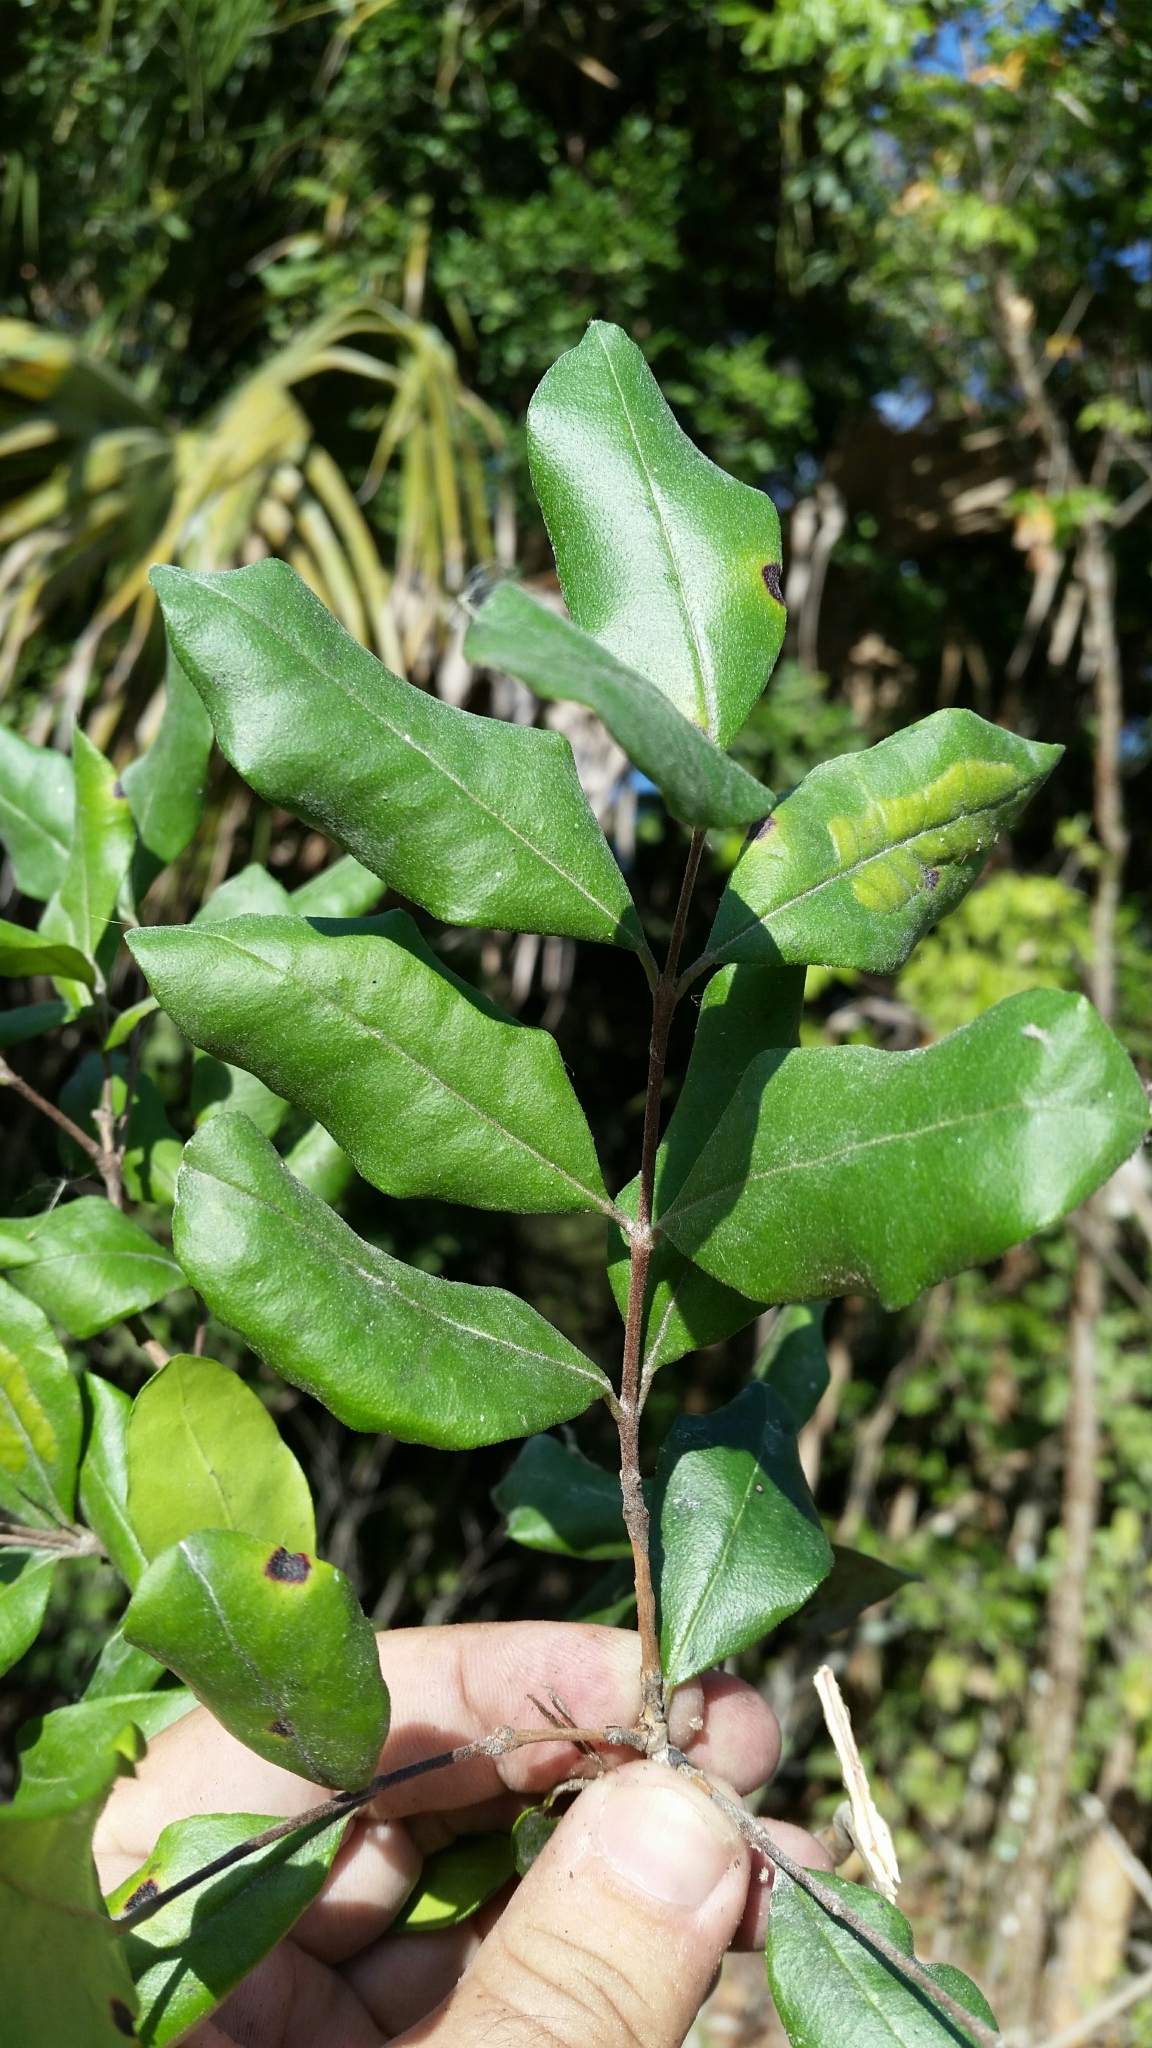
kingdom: Plantae
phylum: Tracheophyta
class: Magnoliopsida
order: Myrtales
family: Myrtaceae
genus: Myrcianthes
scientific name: Myrcianthes fragrans
